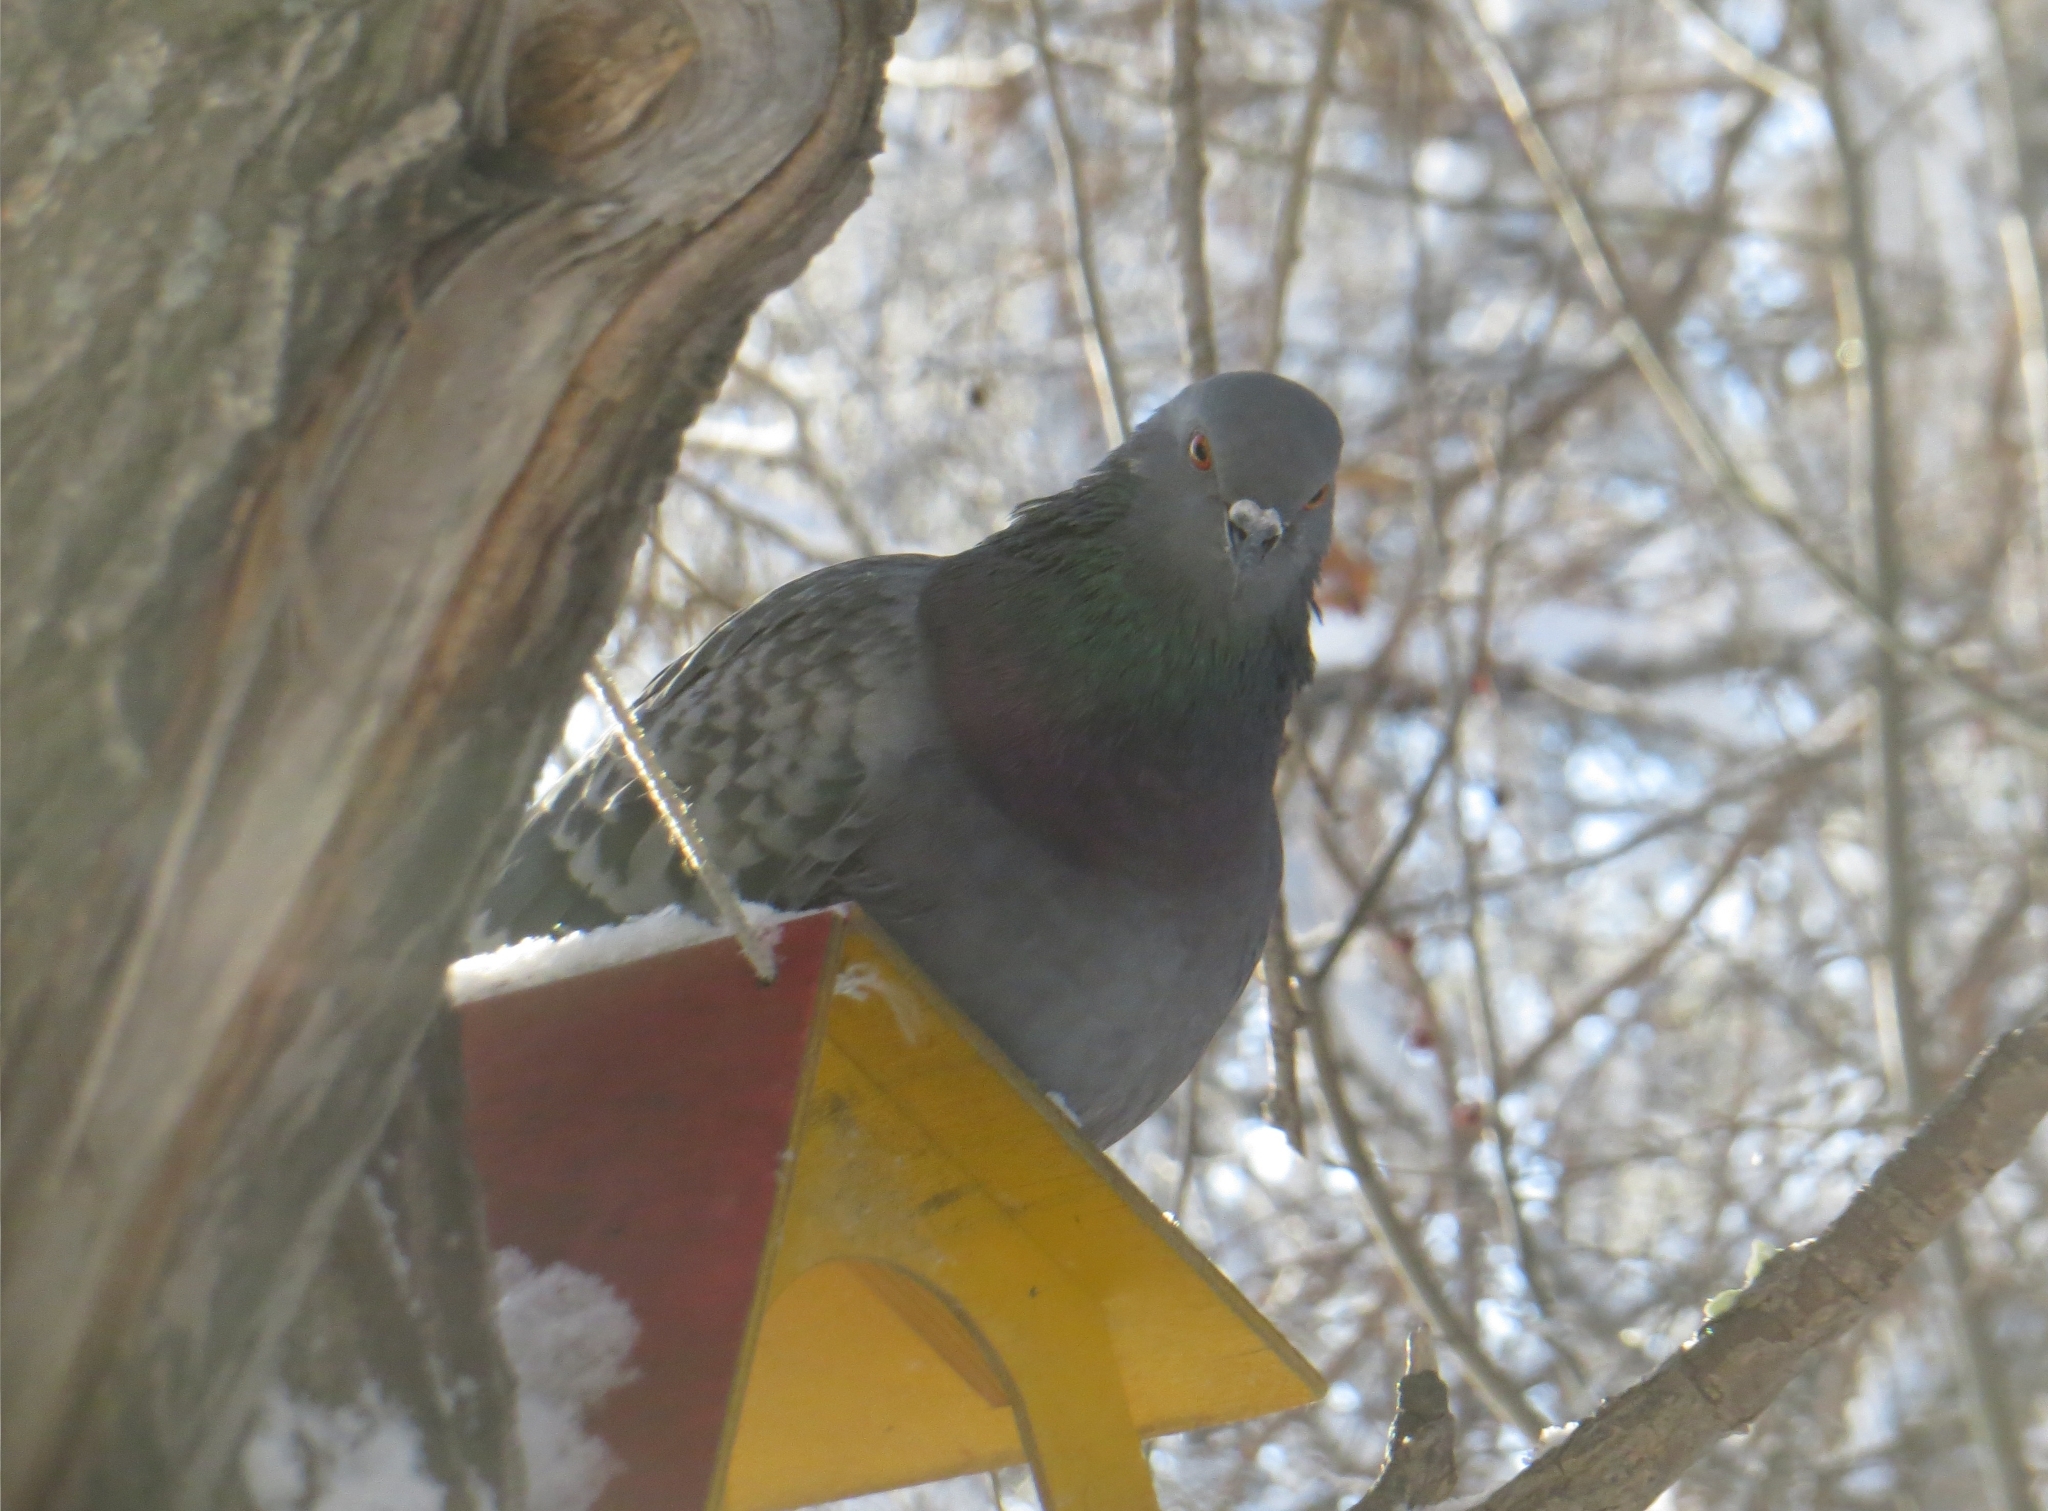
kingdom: Animalia
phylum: Chordata
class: Aves
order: Columbiformes
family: Columbidae
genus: Columba
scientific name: Columba livia
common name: Rock pigeon
